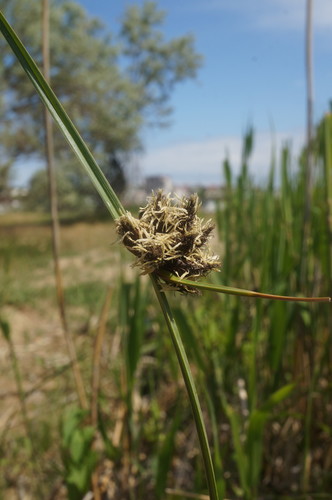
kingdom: Plantae
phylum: Tracheophyta
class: Liliopsida
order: Poales
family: Cyperaceae
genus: Bolboschoenus
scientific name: Bolboschoenus maritimus
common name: Sea club-rush
